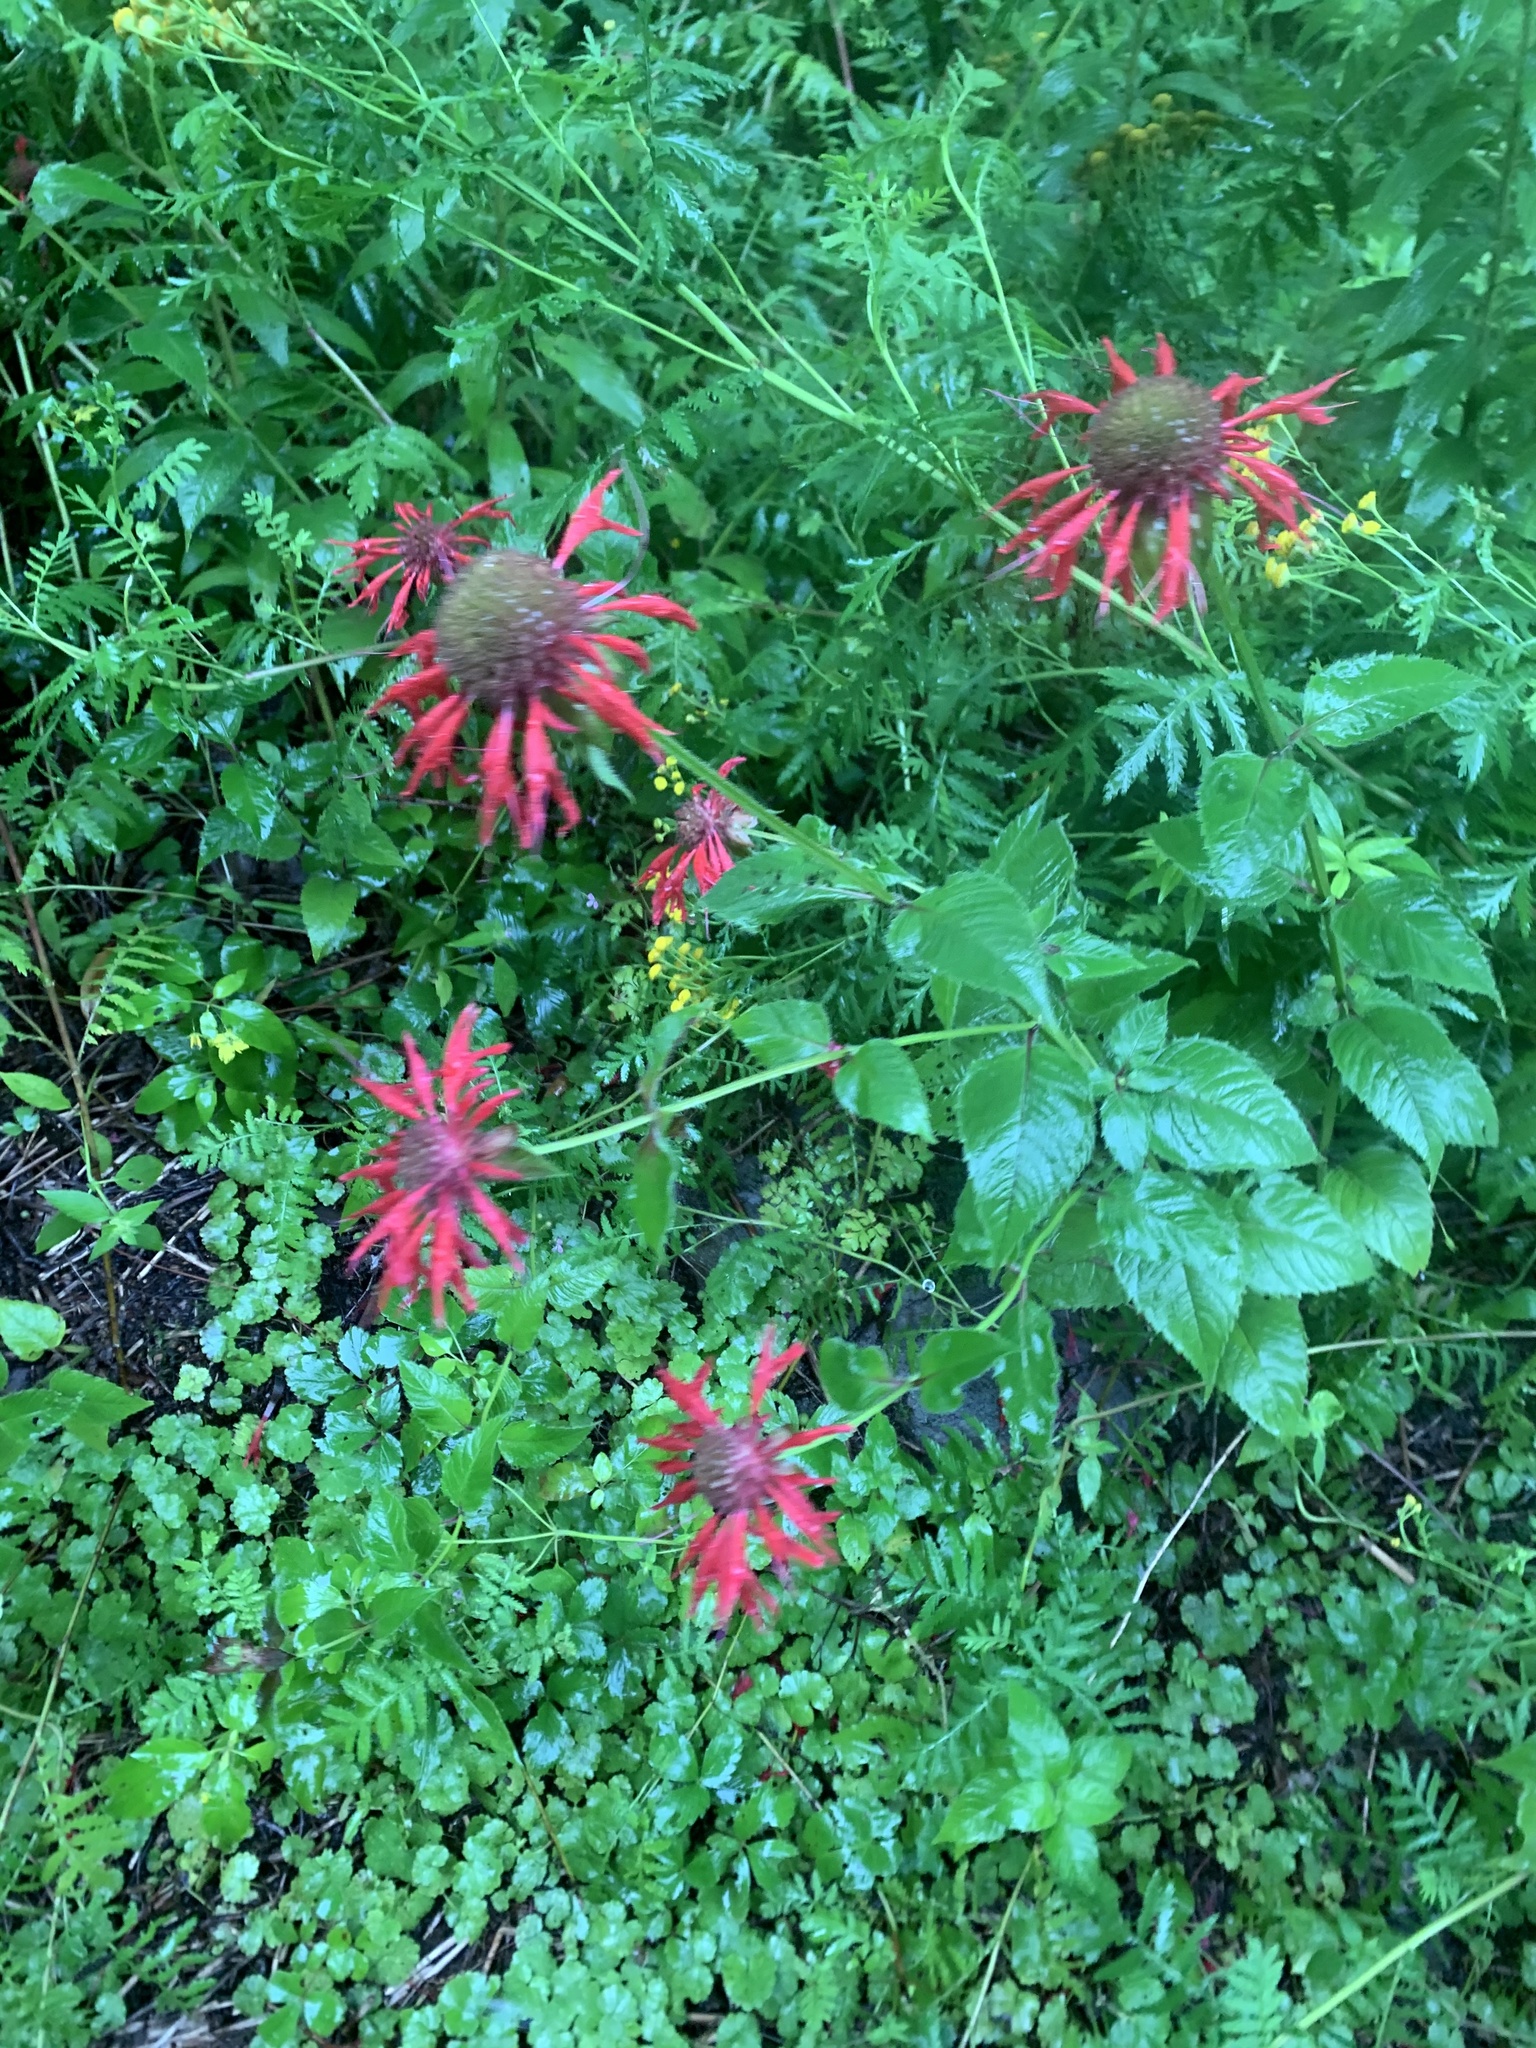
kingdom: Plantae
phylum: Tracheophyta
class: Magnoliopsida
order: Lamiales
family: Lamiaceae
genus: Monarda
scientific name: Monarda didyma
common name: Beebalm
